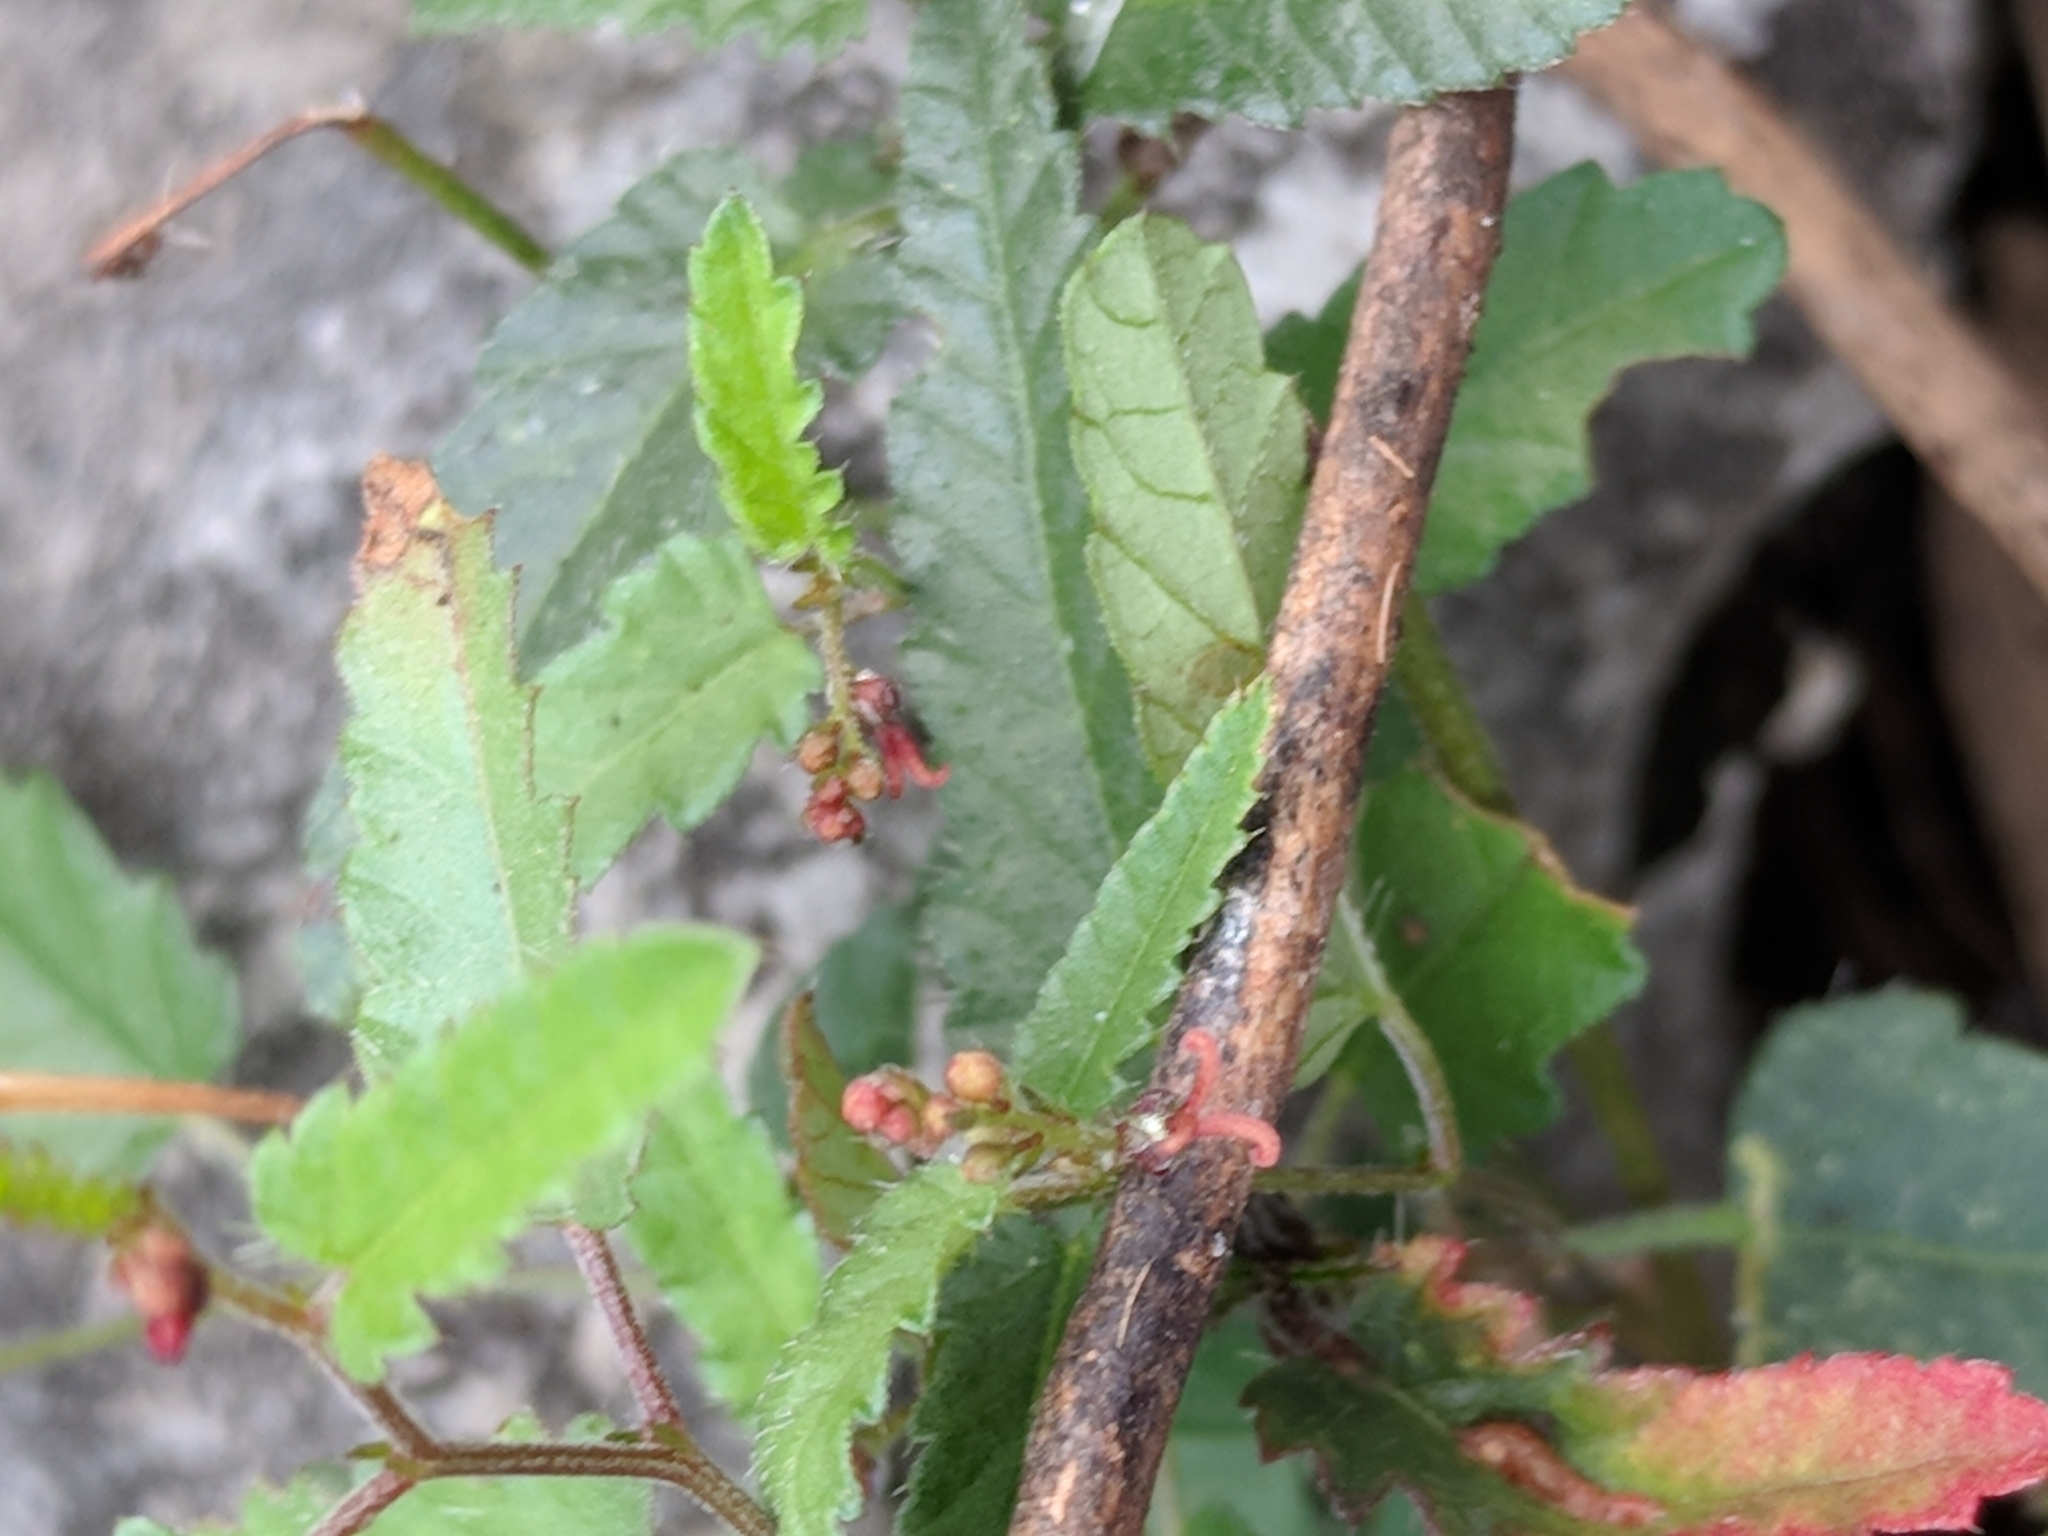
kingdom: Plantae
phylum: Tracheophyta
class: Magnoliopsida
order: Malpighiales
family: Euphorbiaceae
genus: Tragia
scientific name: Tragia ramosa
